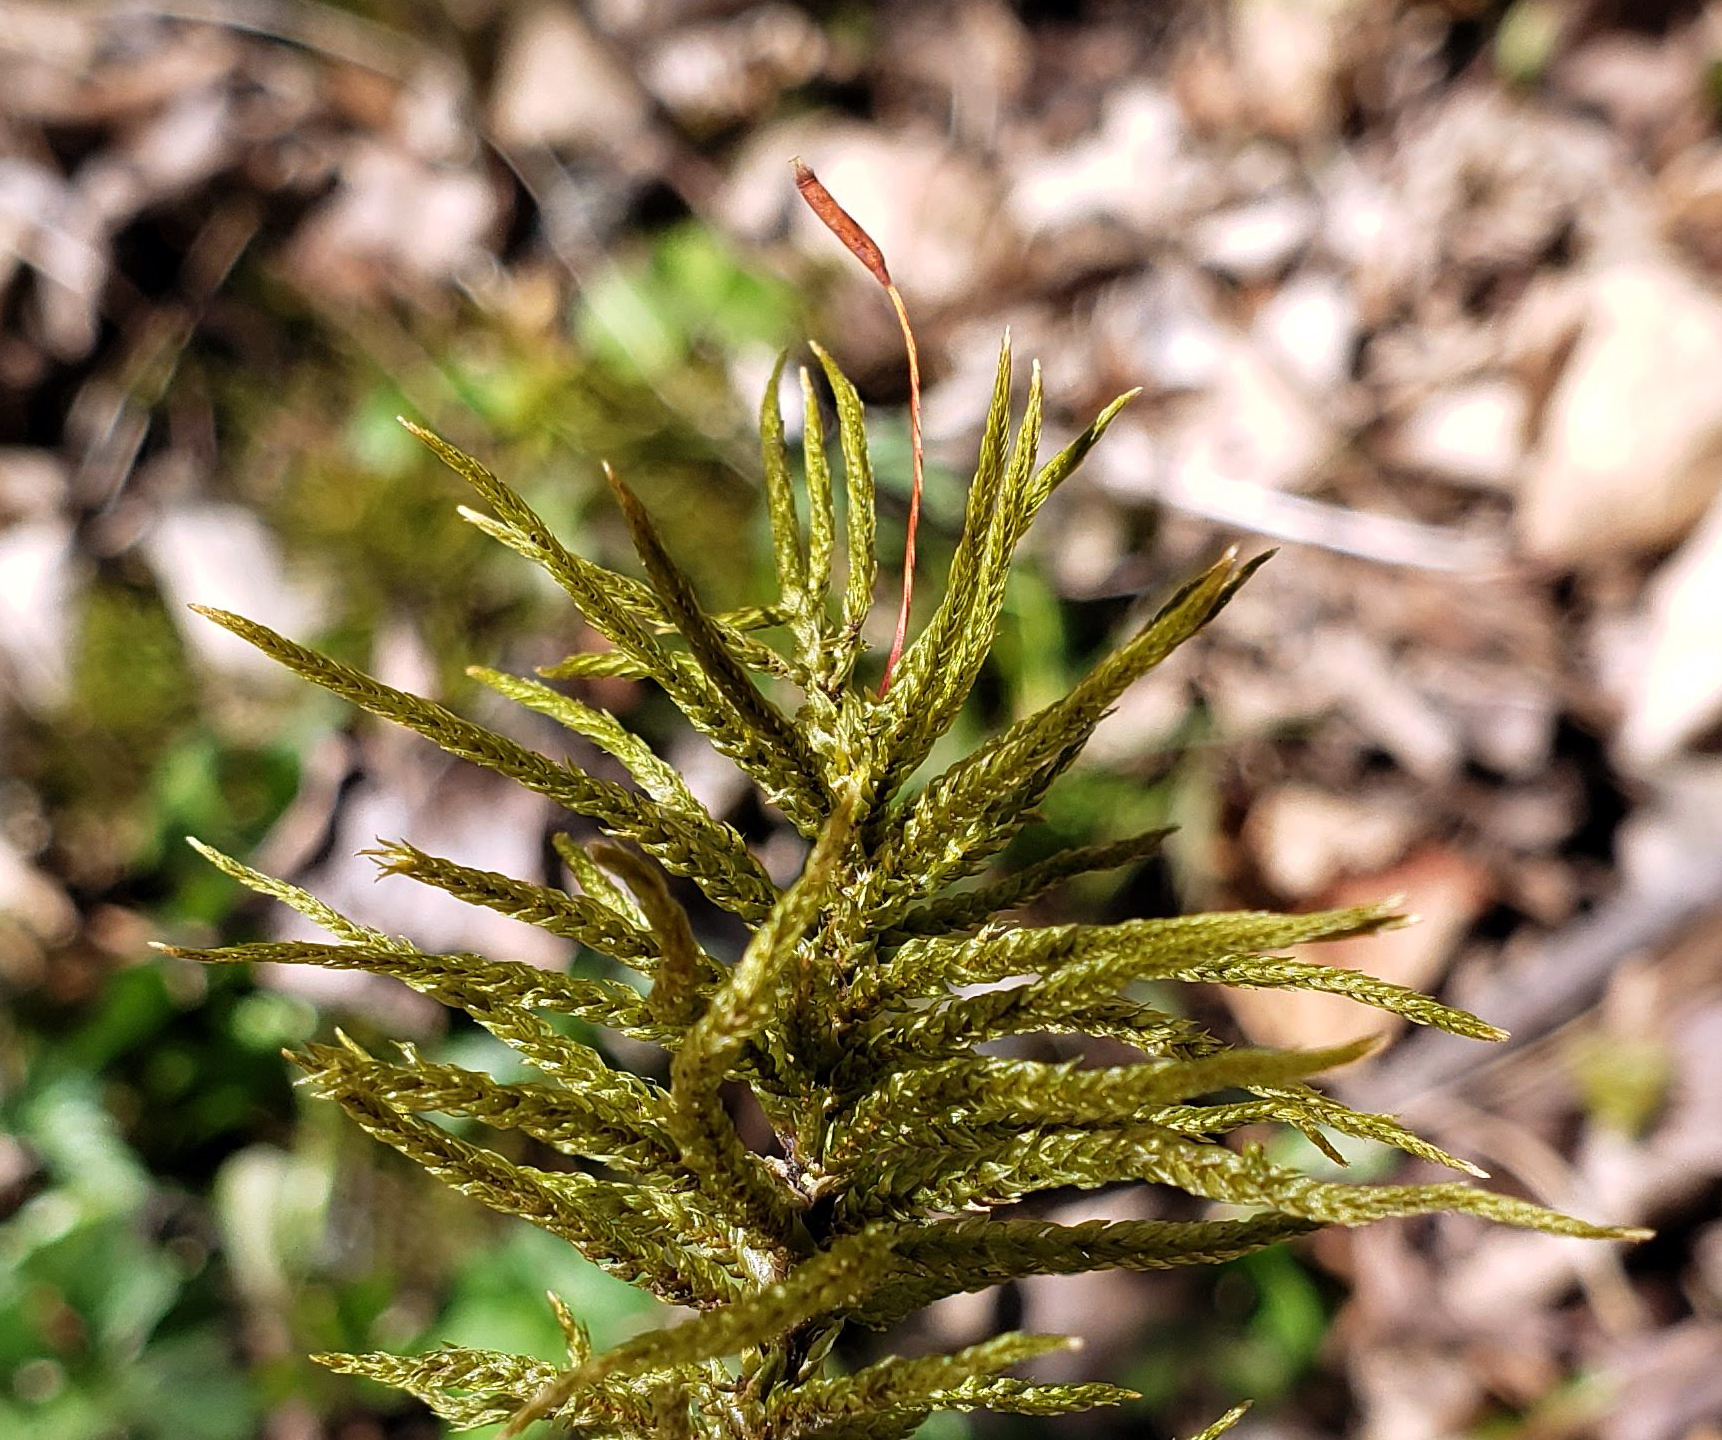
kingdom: Plantae
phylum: Bryophyta
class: Bryopsida
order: Hypnales
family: Climaciaceae
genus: Climacium
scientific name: Climacium americanum
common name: American tree moss
